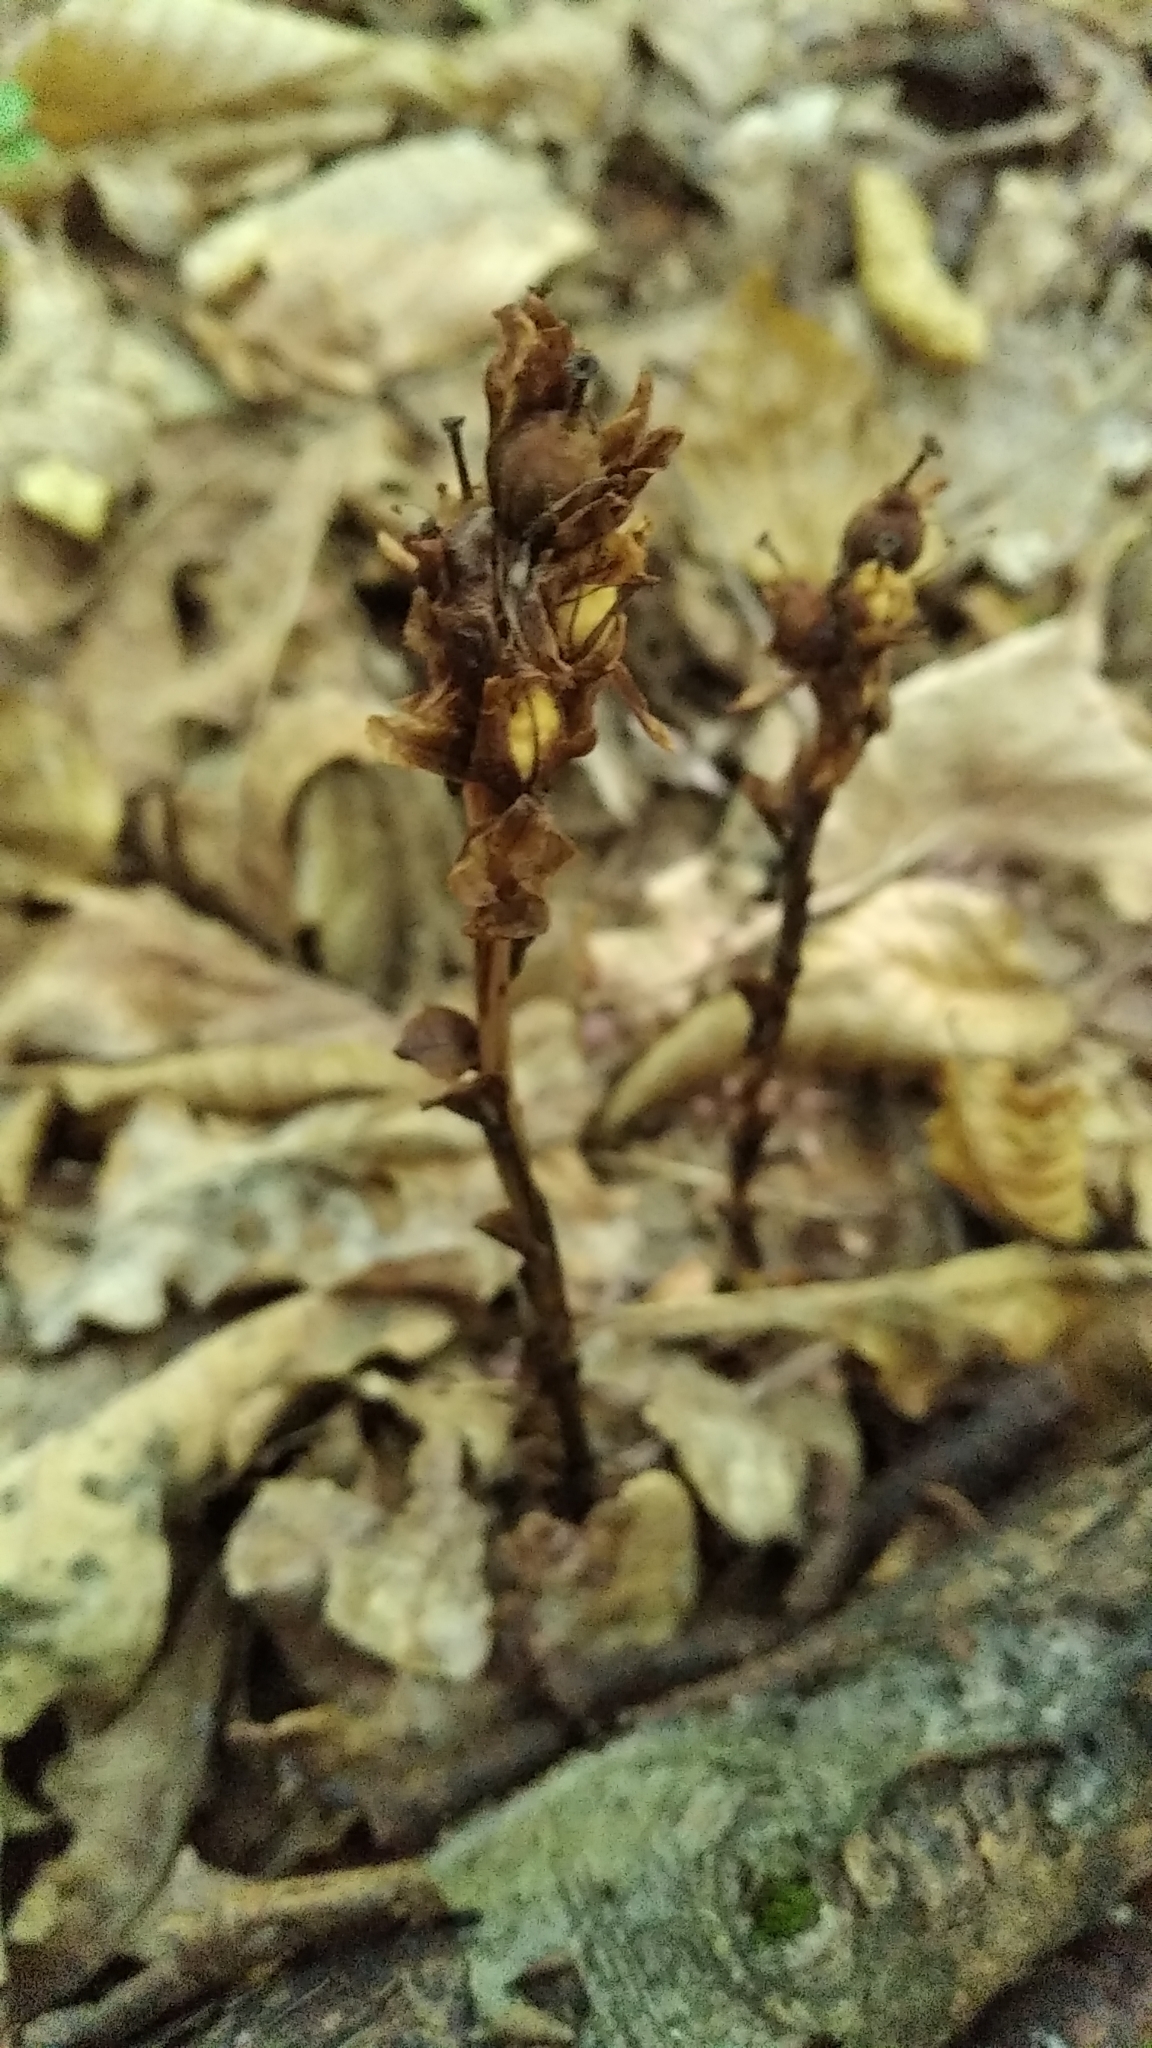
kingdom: Plantae
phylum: Tracheophyta
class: Magnoliopsida
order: Ericales
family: Ericaceae
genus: Hypopitys
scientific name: Hypopitys monotropa
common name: Yellow bird's-nest
